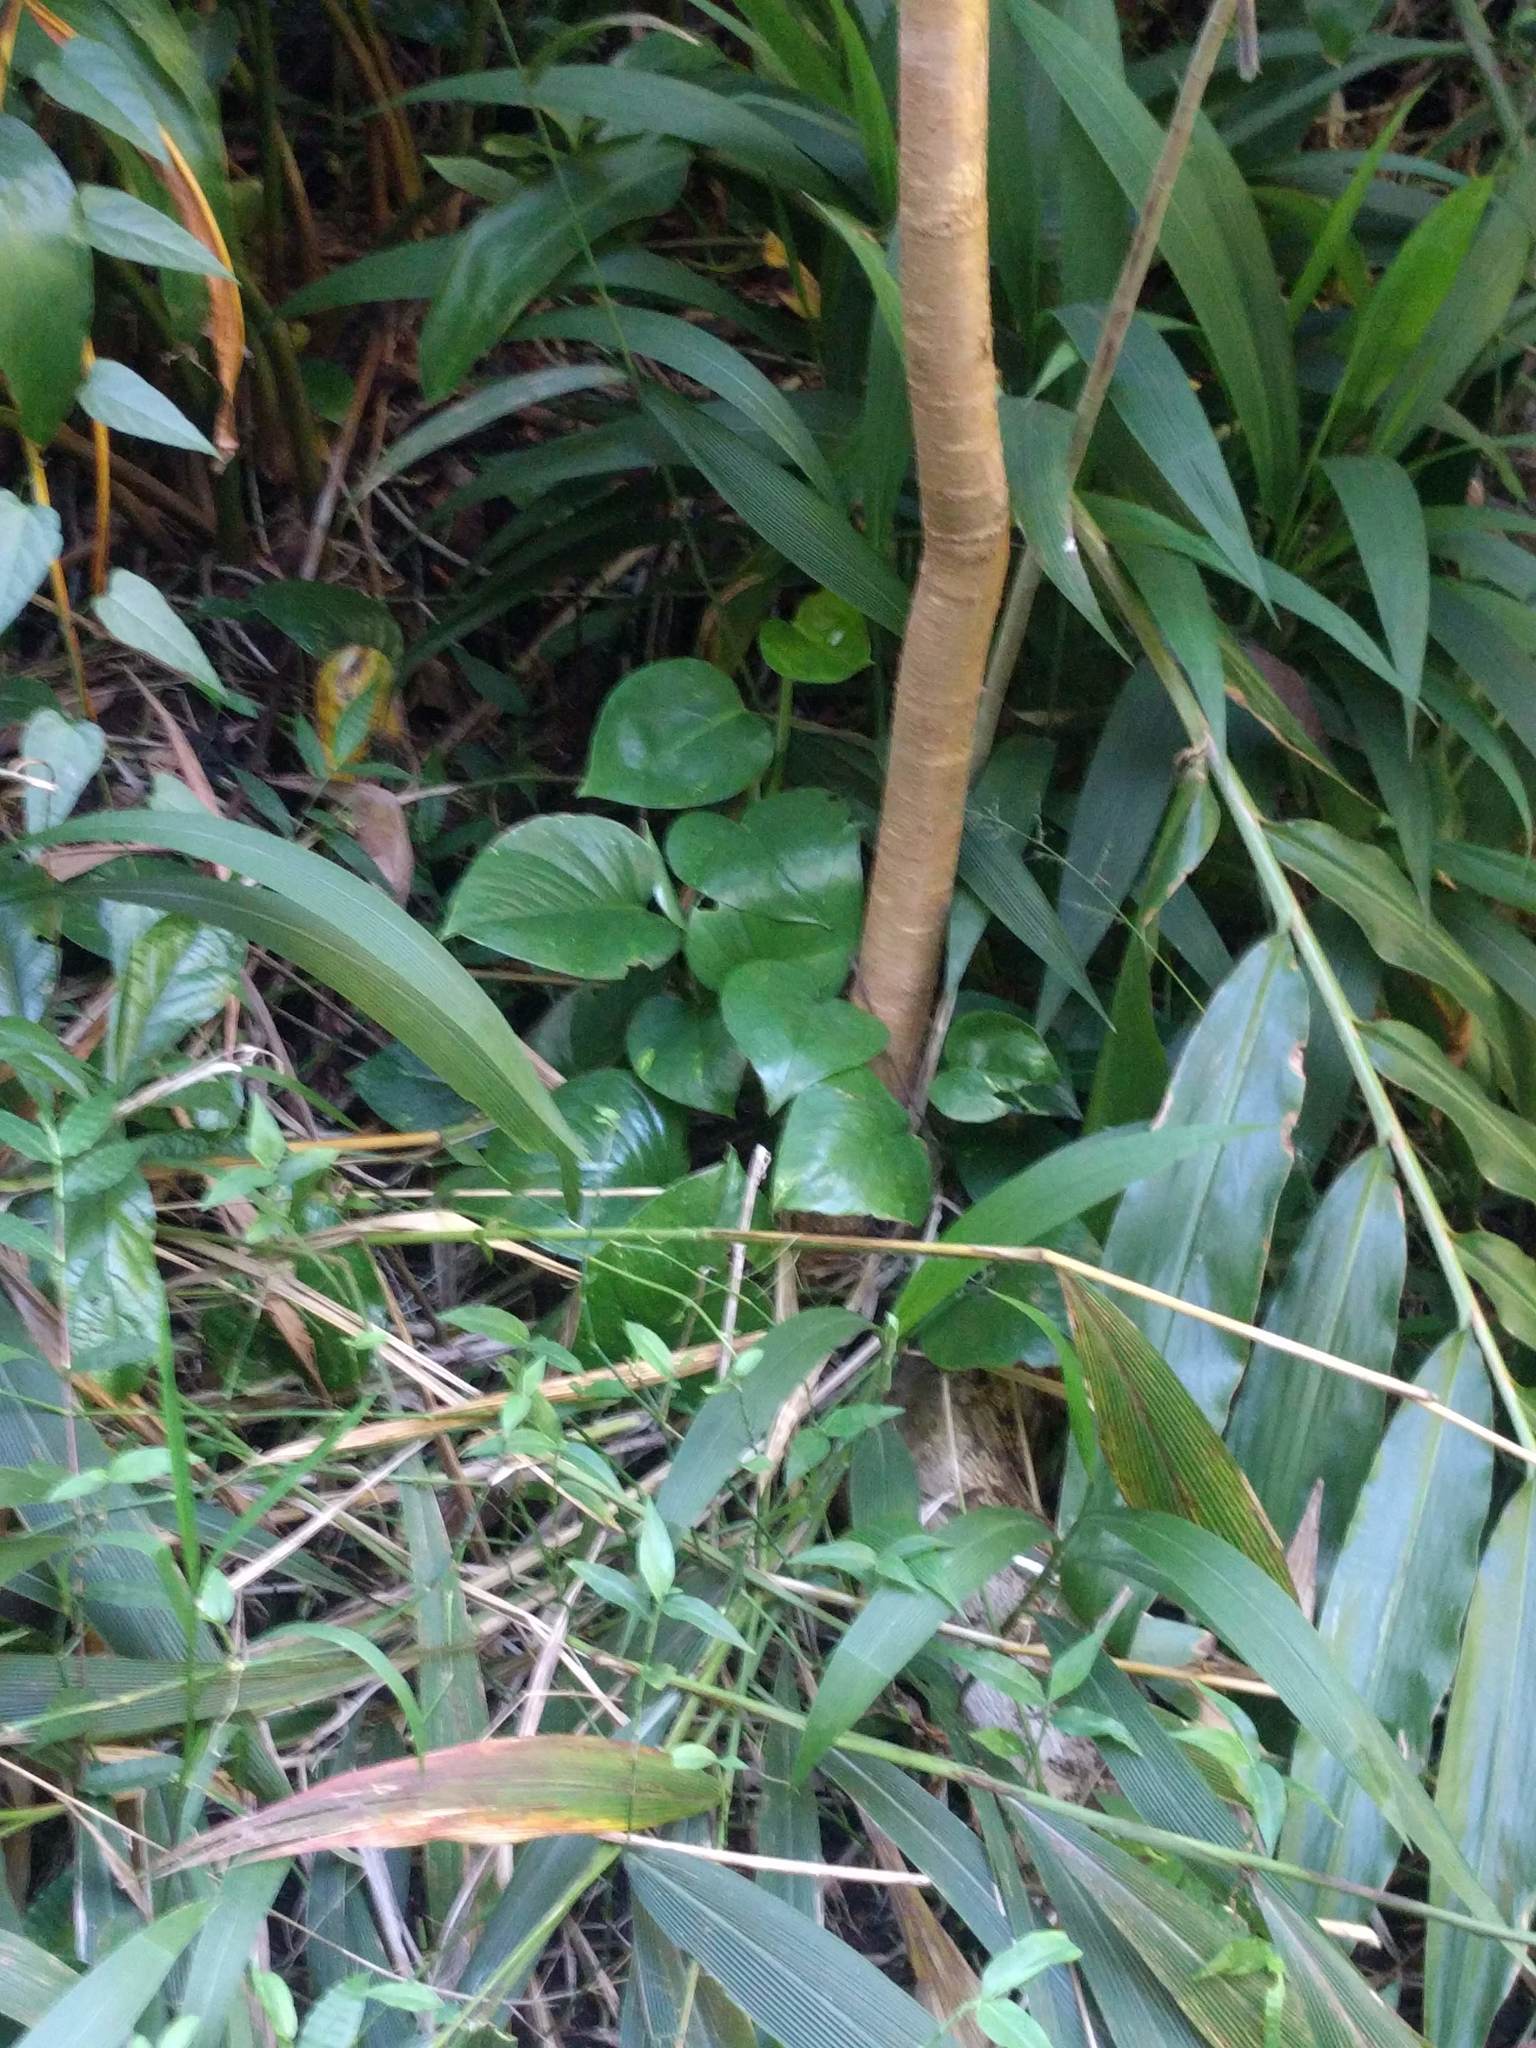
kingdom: Plantae
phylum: Tracheophyta
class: Liliopsida
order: Alismatales
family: Araceae
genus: Epipremnum
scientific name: Epipremnum aureum
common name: Golden hunter's-robe
